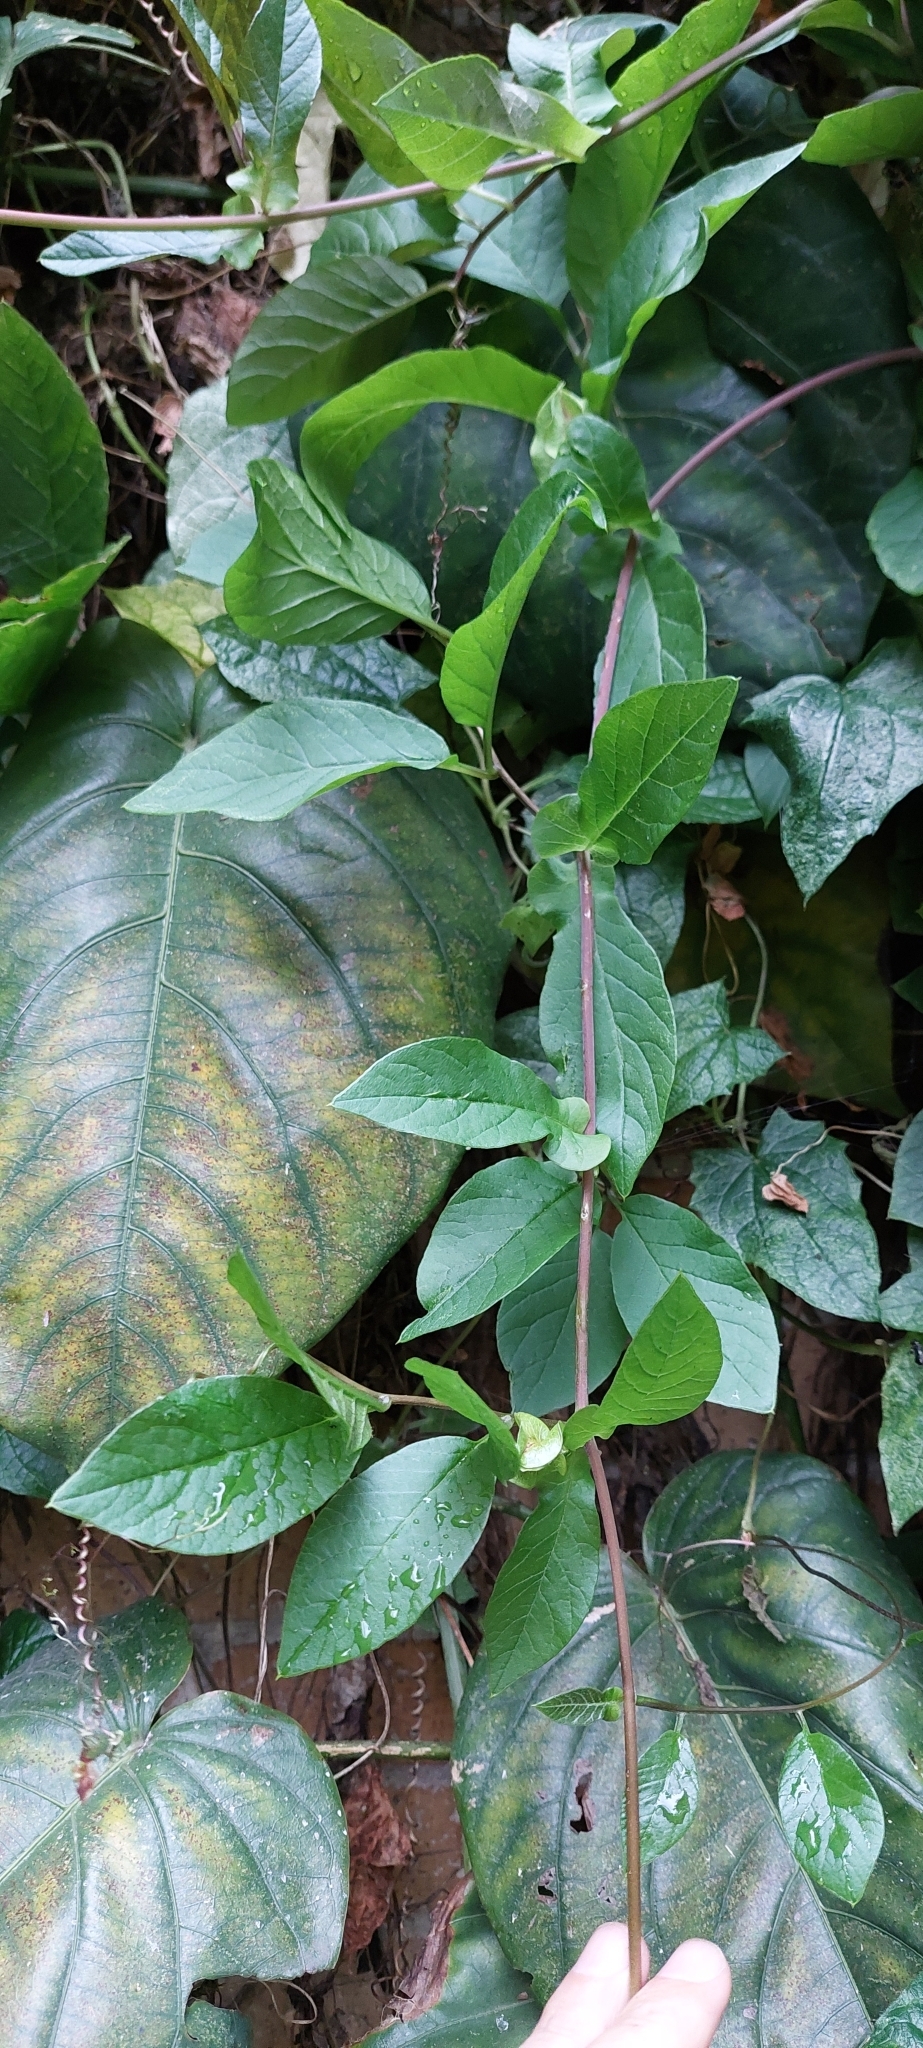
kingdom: Plantae
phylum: Tracheophyta
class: Magnoliopsida
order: Ericales
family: Polemoniaceae
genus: Cobaea
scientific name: Cobaea scandens
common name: Cup-and-saucer-vine
